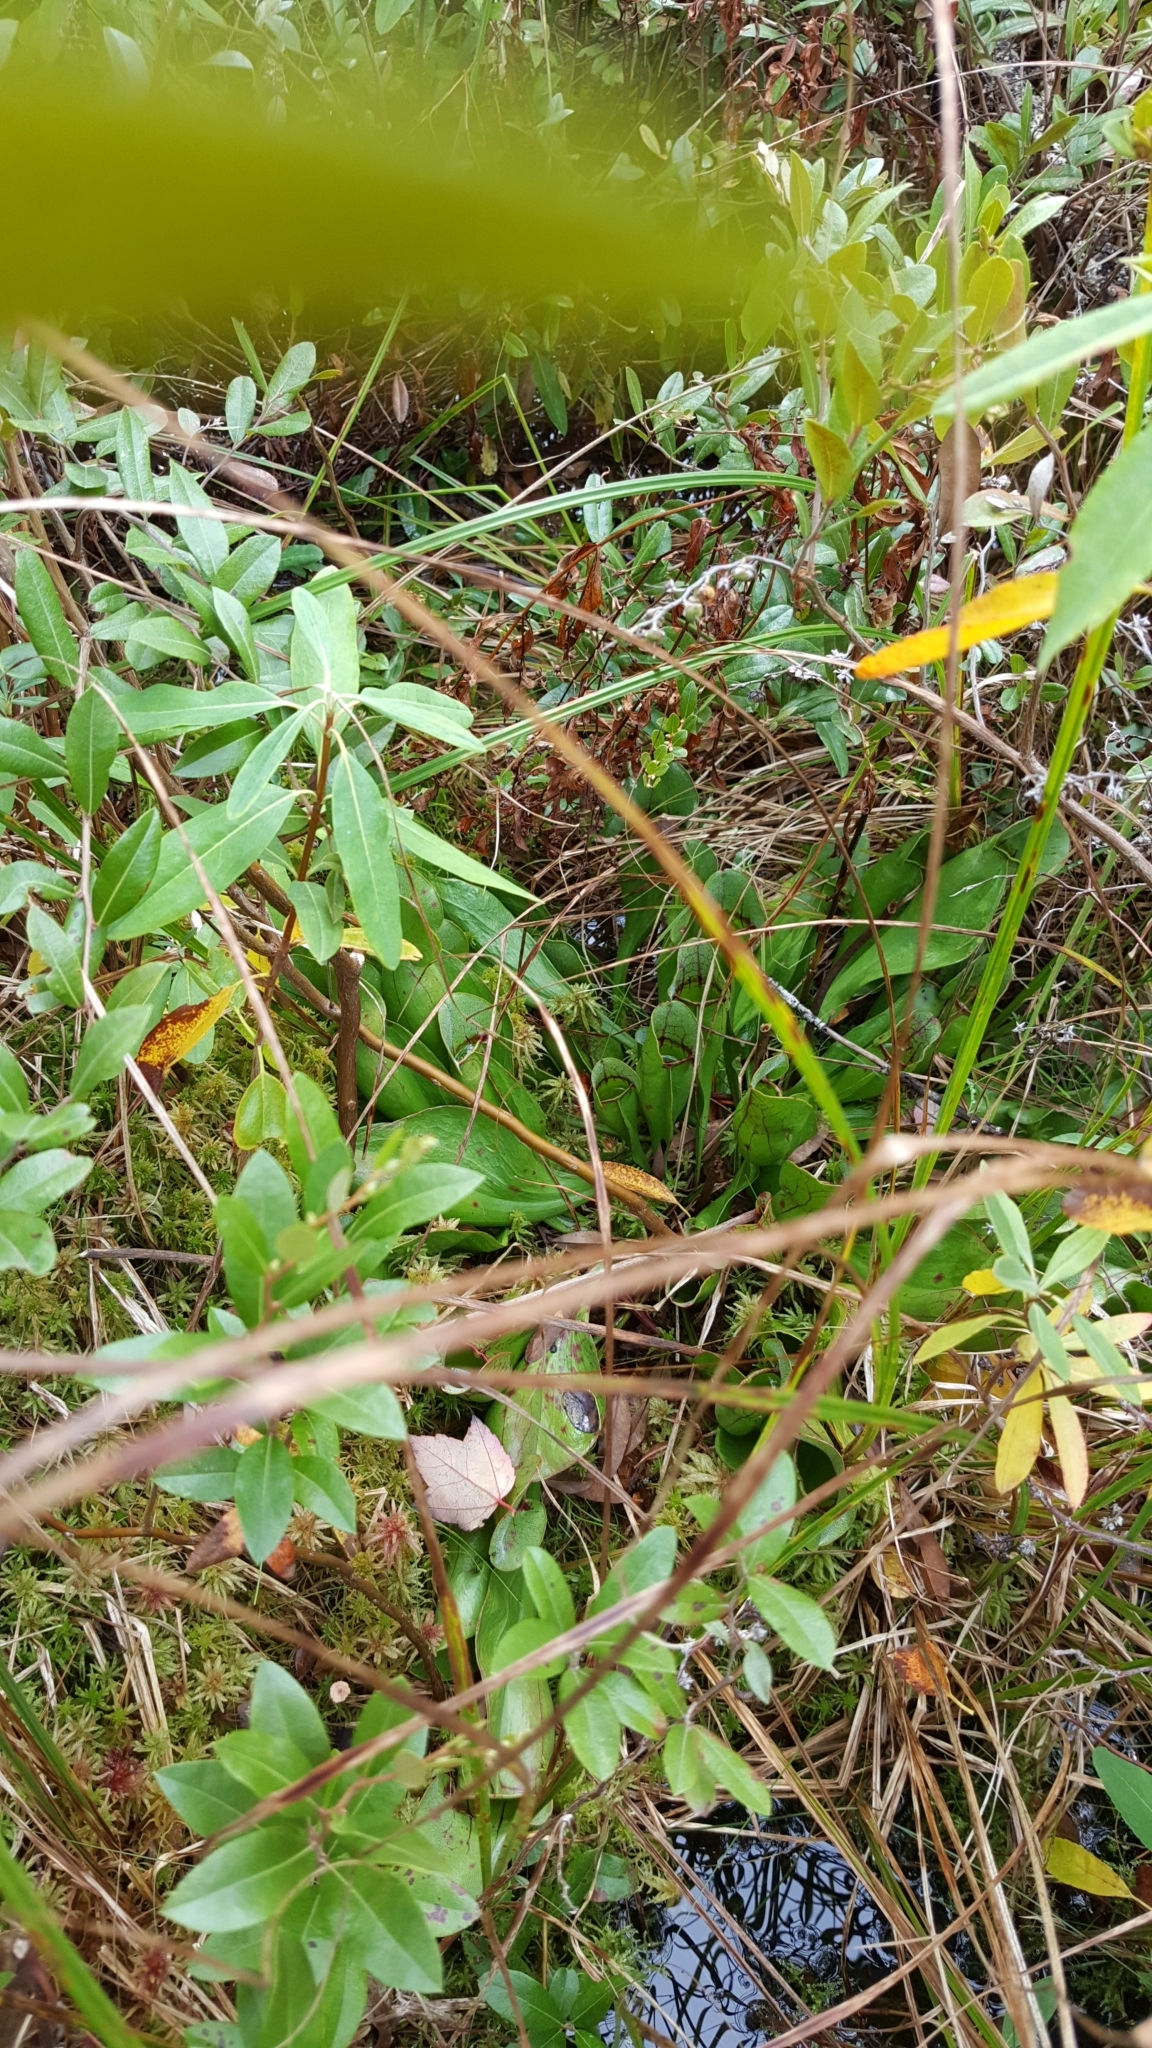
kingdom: Plantae
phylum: Tracheophyta
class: Magnoliopsida
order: Ericales
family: Sarraceniaceae
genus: Sarracenia
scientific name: Sarracenia purpurea
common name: Pitcherplant
